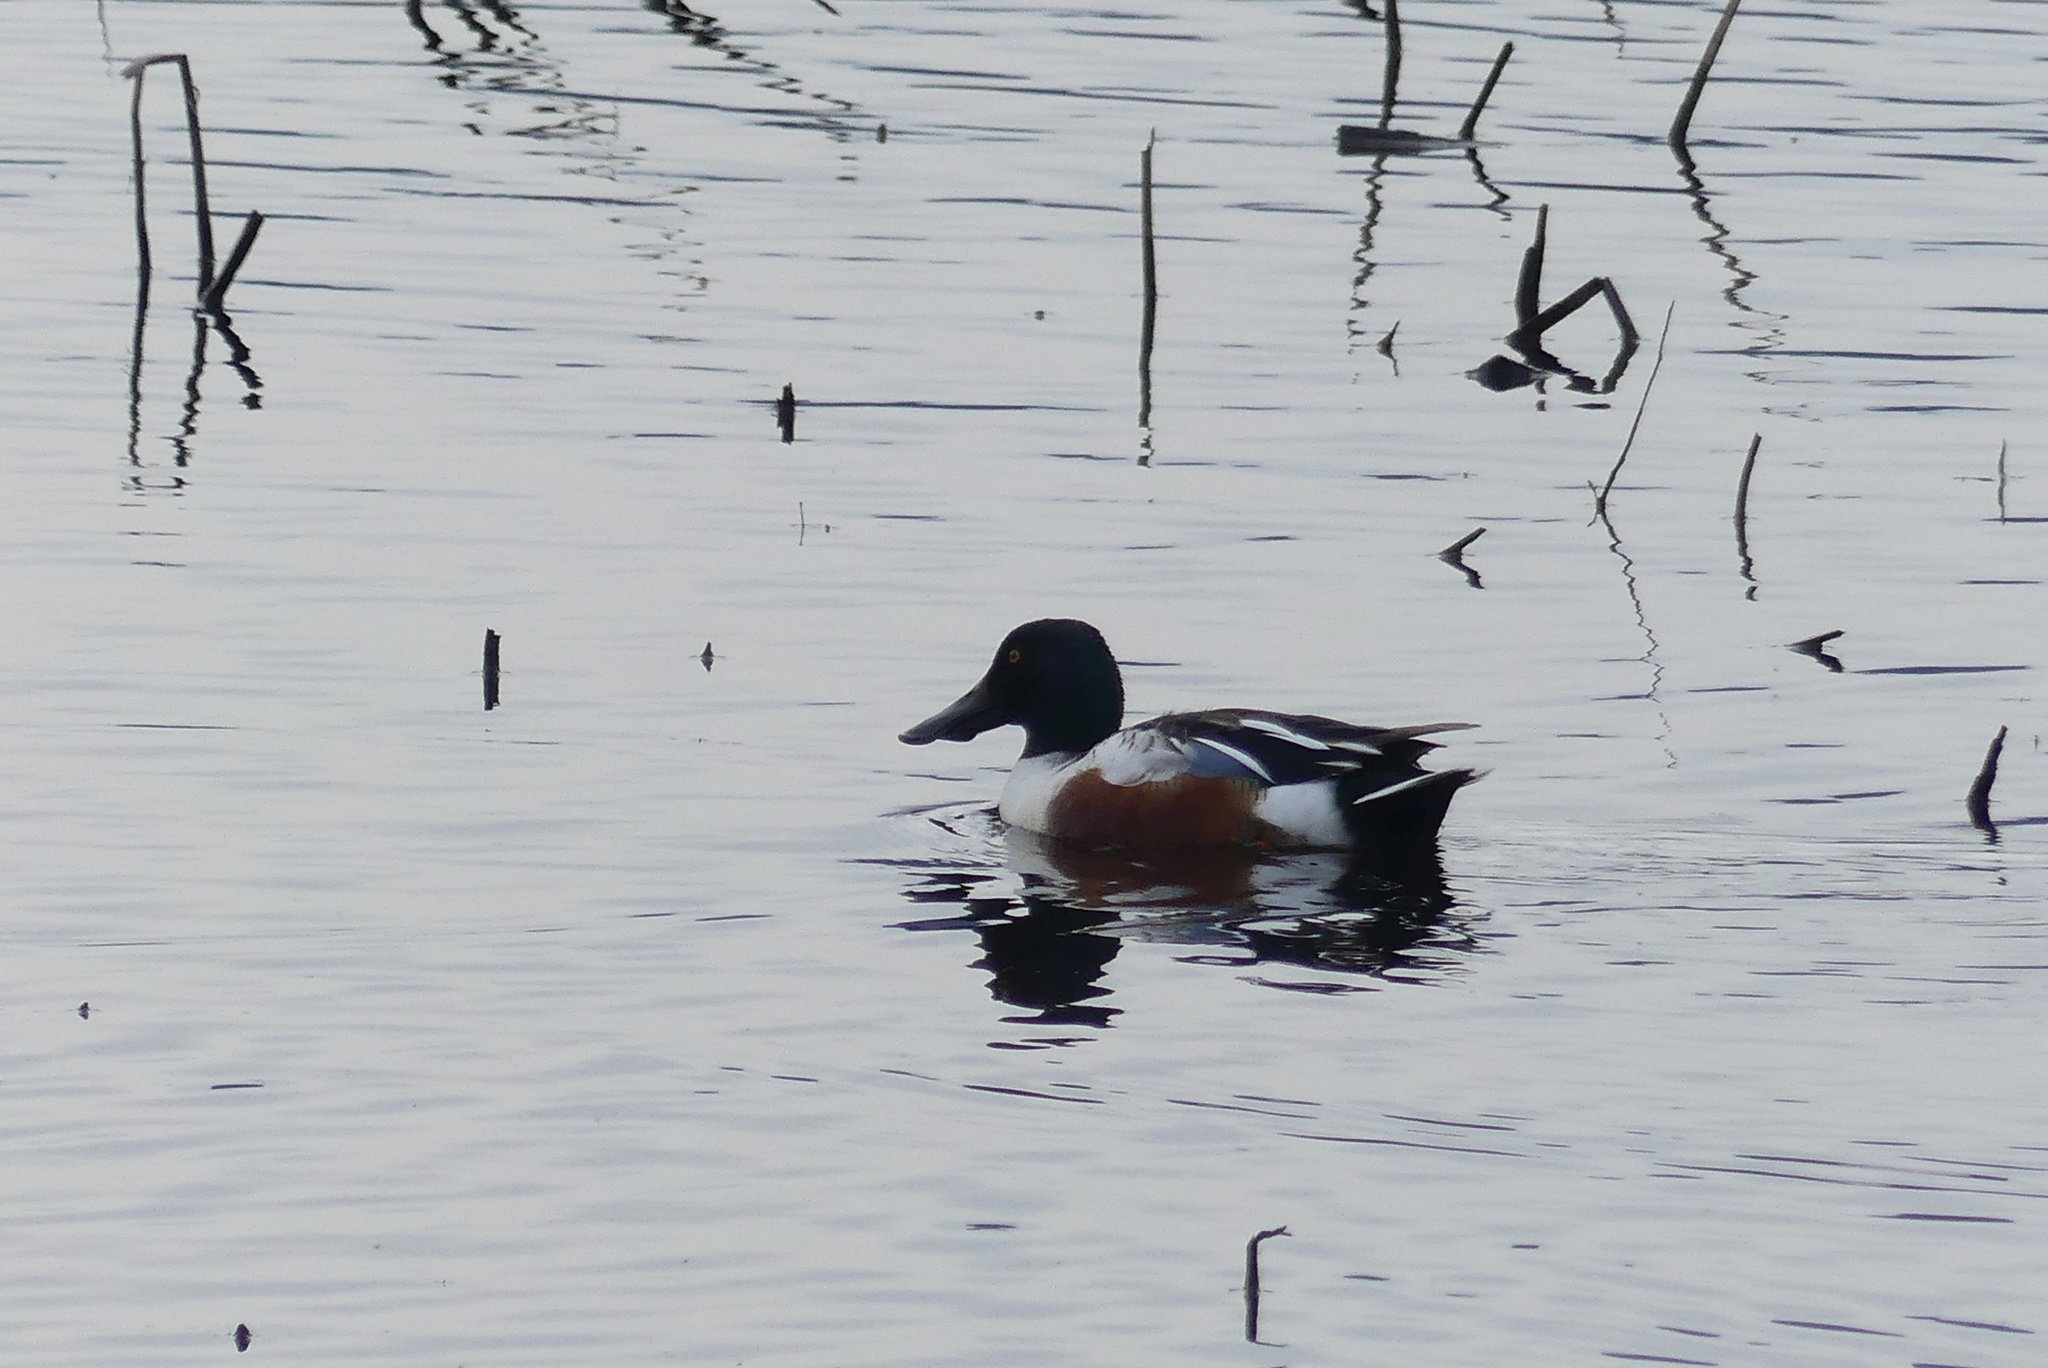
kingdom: Animalia
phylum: Chordata
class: Aves
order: Anseriformes
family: Anatidae
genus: Spatula
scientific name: Spatula clypeata
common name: Northern shoveler
